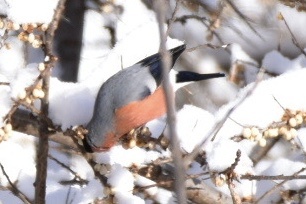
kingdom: Animalia
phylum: Chordata
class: Aves
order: Passeriformes
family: Fringillidae
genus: Pyrrhula
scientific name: Pyrrhula pyrrhula
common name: Eurasian bullfinch
